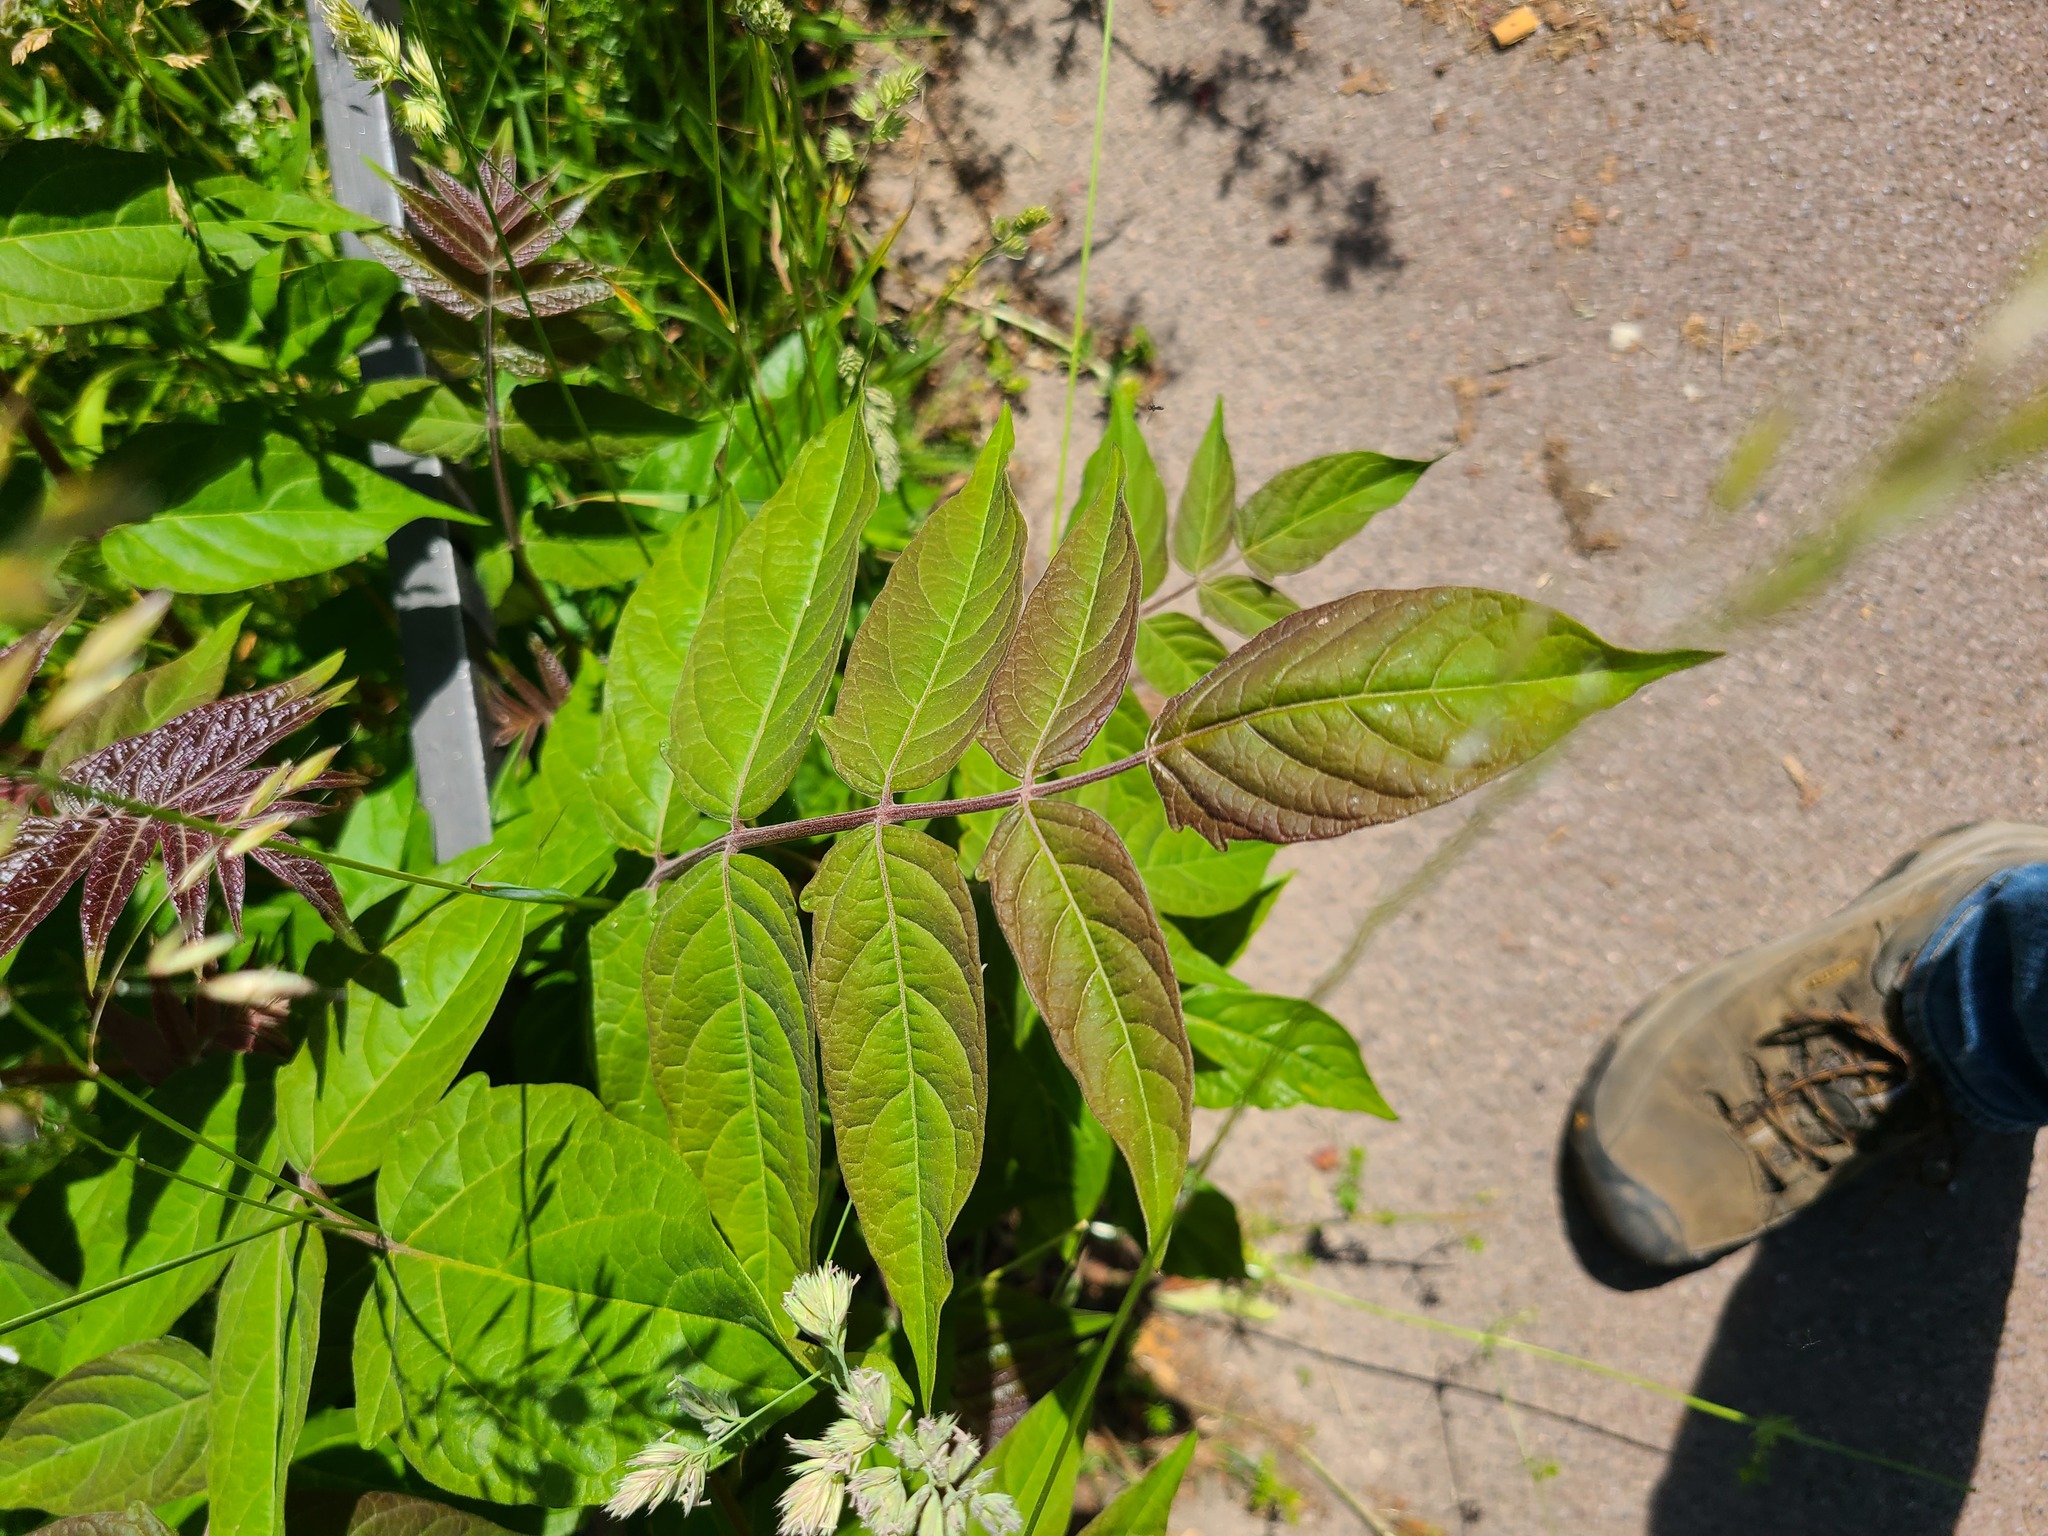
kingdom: Plantae
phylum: Tracheophyta
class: Magnoliopsida
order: Sapindales
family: Simaroubaceae
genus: Ailanthus
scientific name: Ailanthus altissima
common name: Tree-of-heaven
